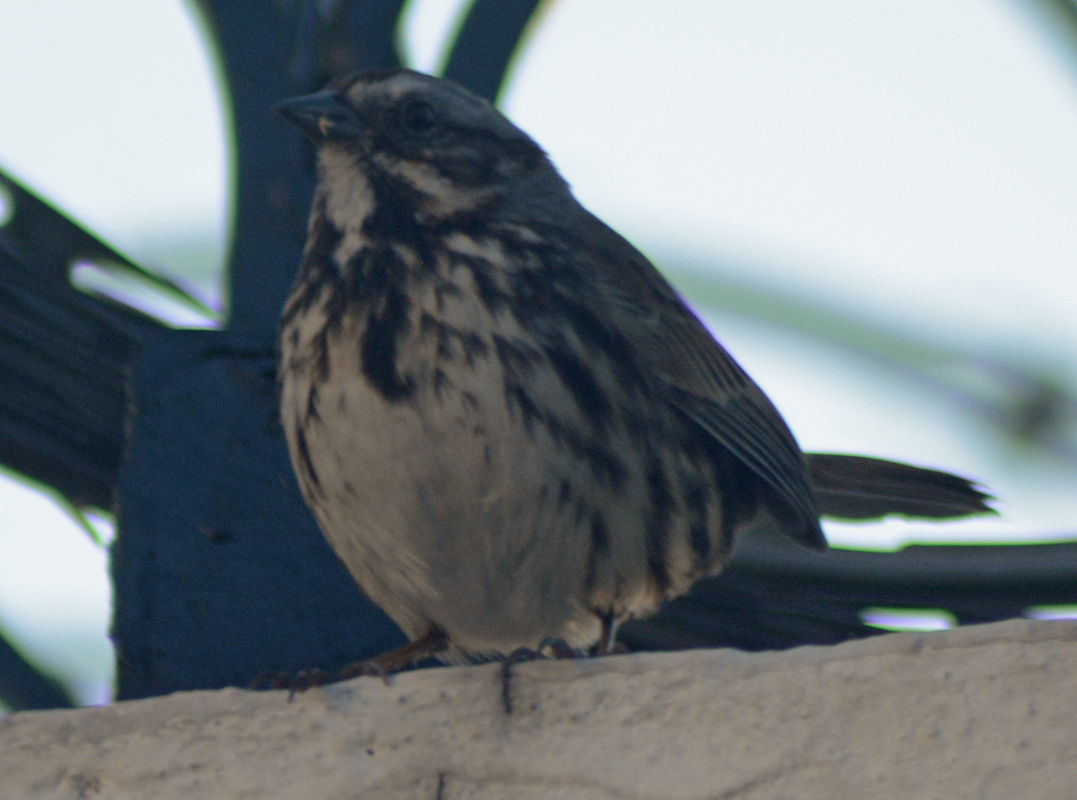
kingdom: Animalia
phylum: Chordata
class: Aves
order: Passeriformes
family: Passerellidae
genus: Melospiza
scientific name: Melospiza melodia
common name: Song sparrow
